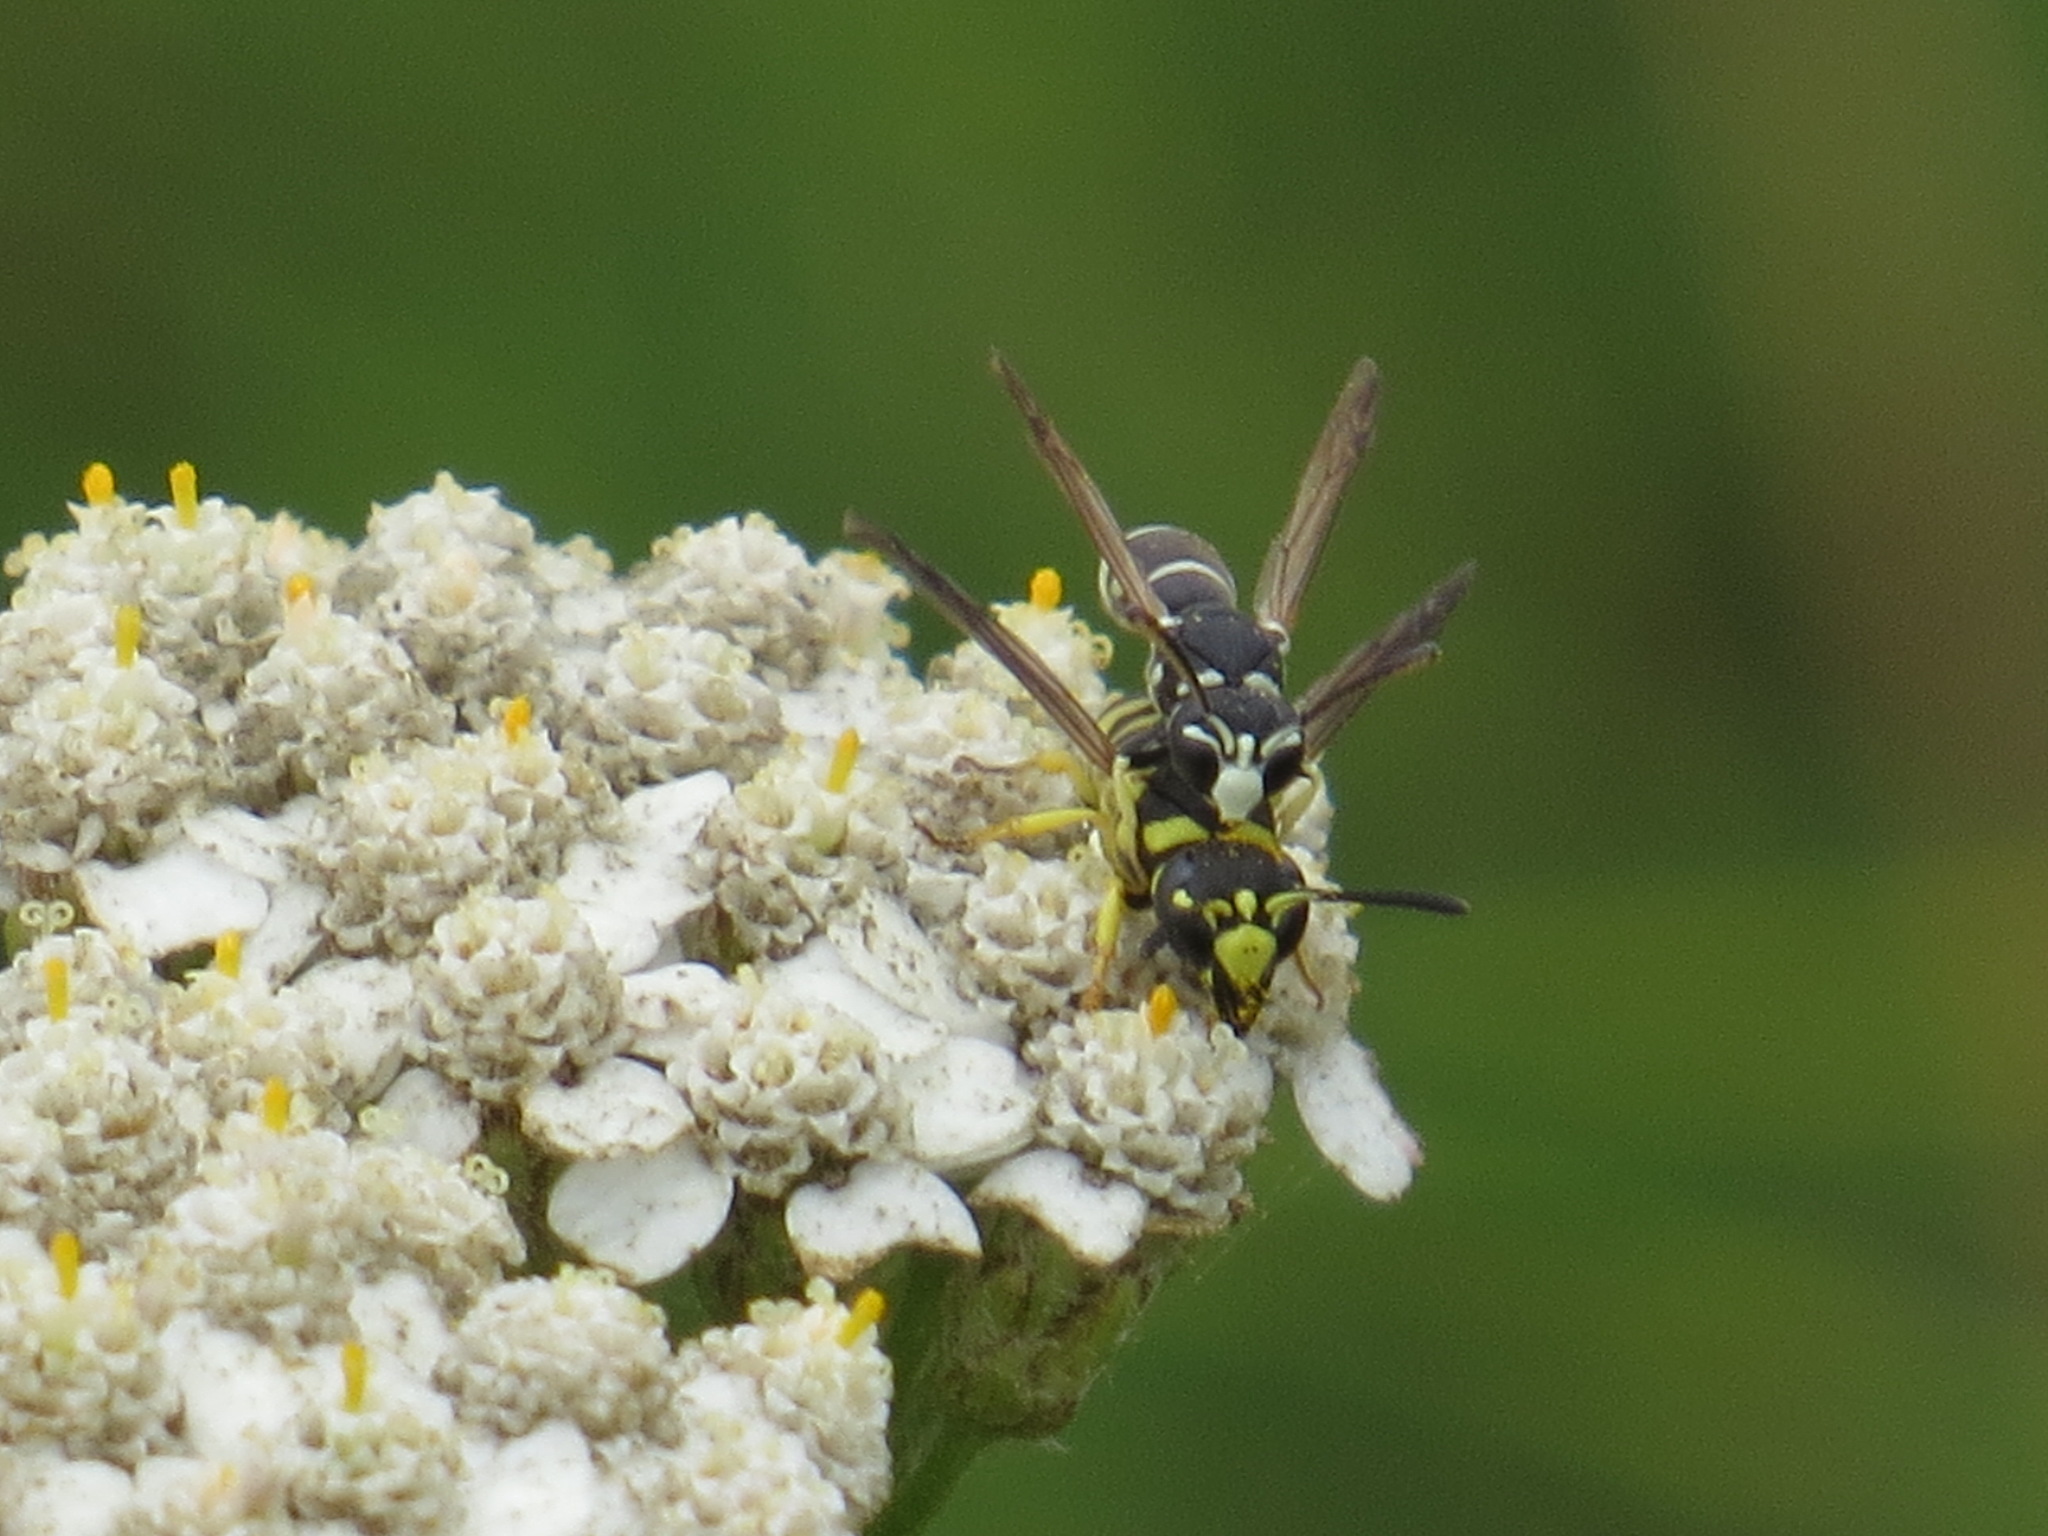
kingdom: Animalia
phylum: Arthropoda
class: Insecta
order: Hymenoptera
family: Eumenidae
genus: Rhynchalastor
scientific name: Rhynchalastor blandus
